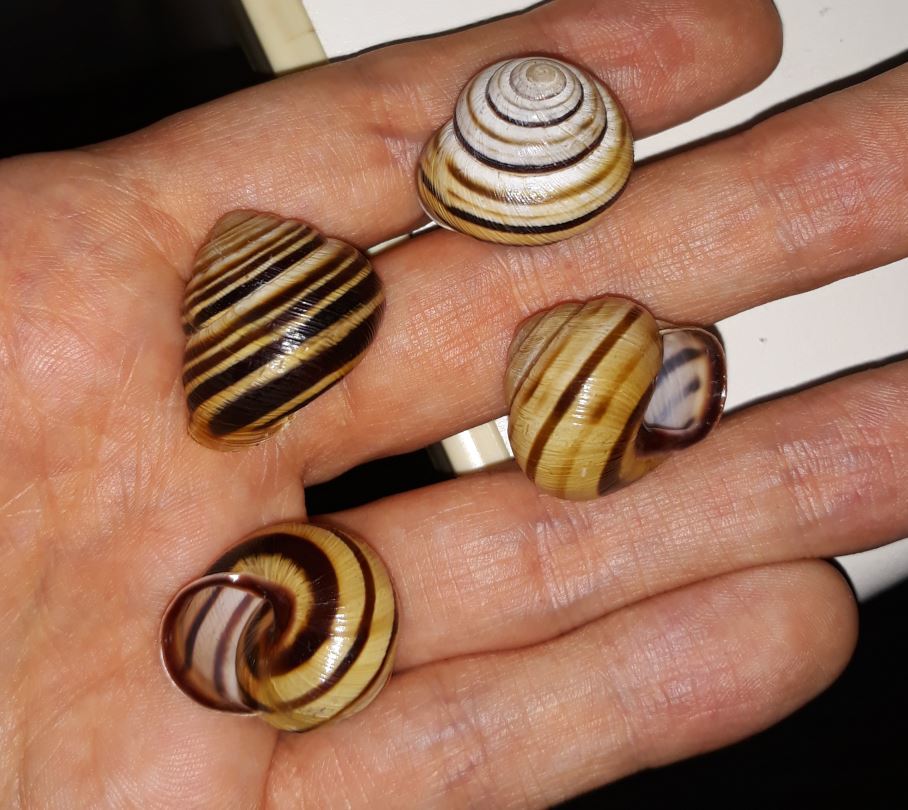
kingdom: Animalia
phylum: Mollusca
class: Gastropoda
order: Stylommatophora
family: Helicidae
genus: Caucasotachea
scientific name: Caucasotachea vindobonensis
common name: European helicid land snail
